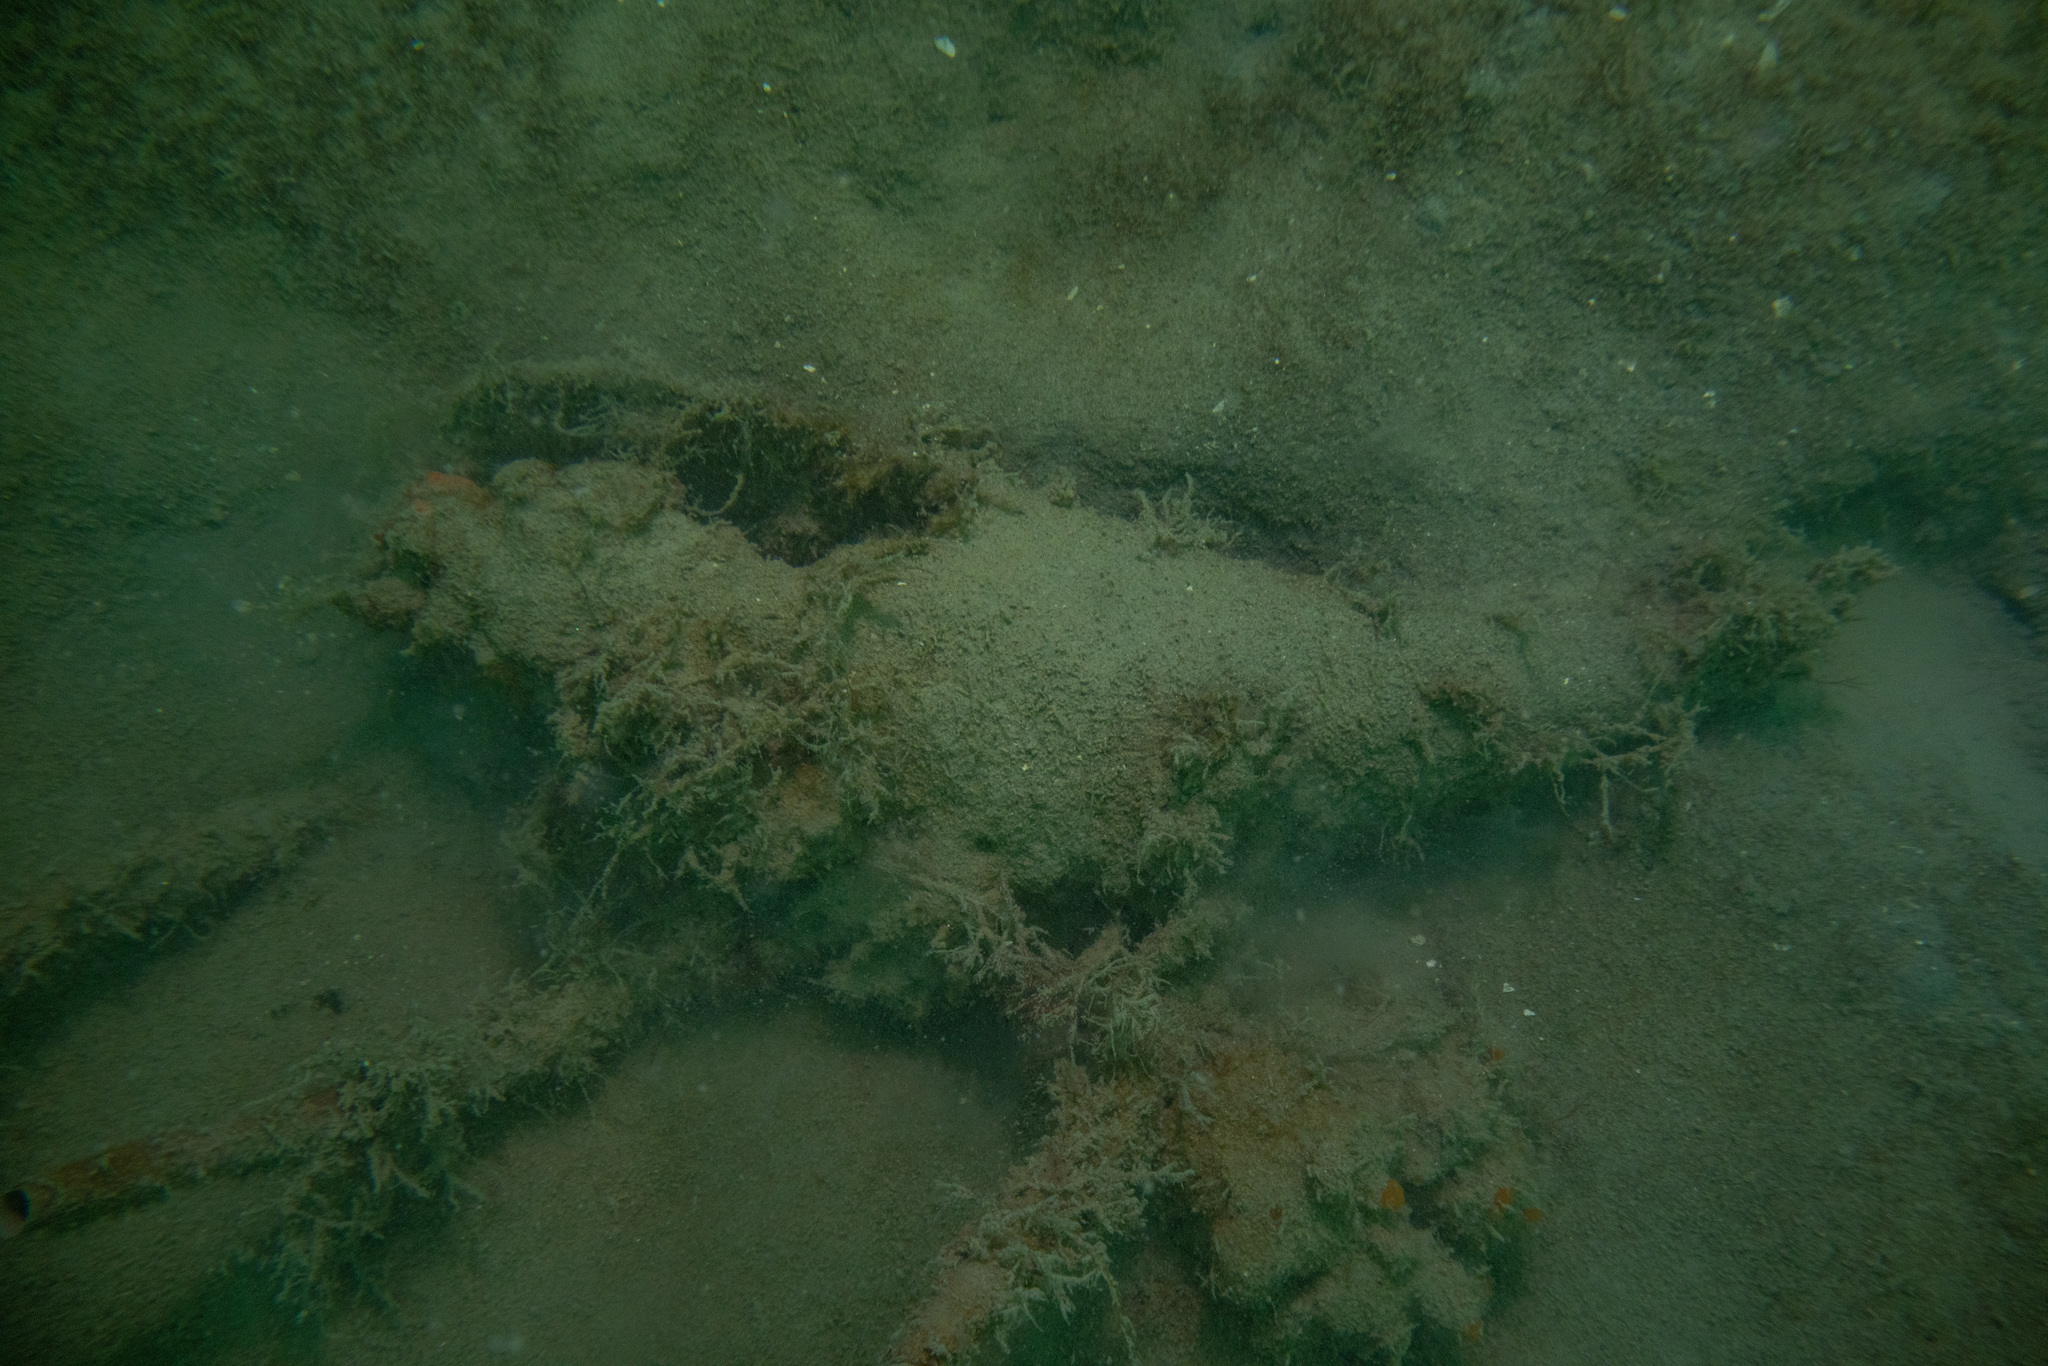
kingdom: Animalia
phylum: Mollusca
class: Bivalvia
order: Ostreida
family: Pinnidae
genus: Atrina
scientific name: Atrina zelandica
